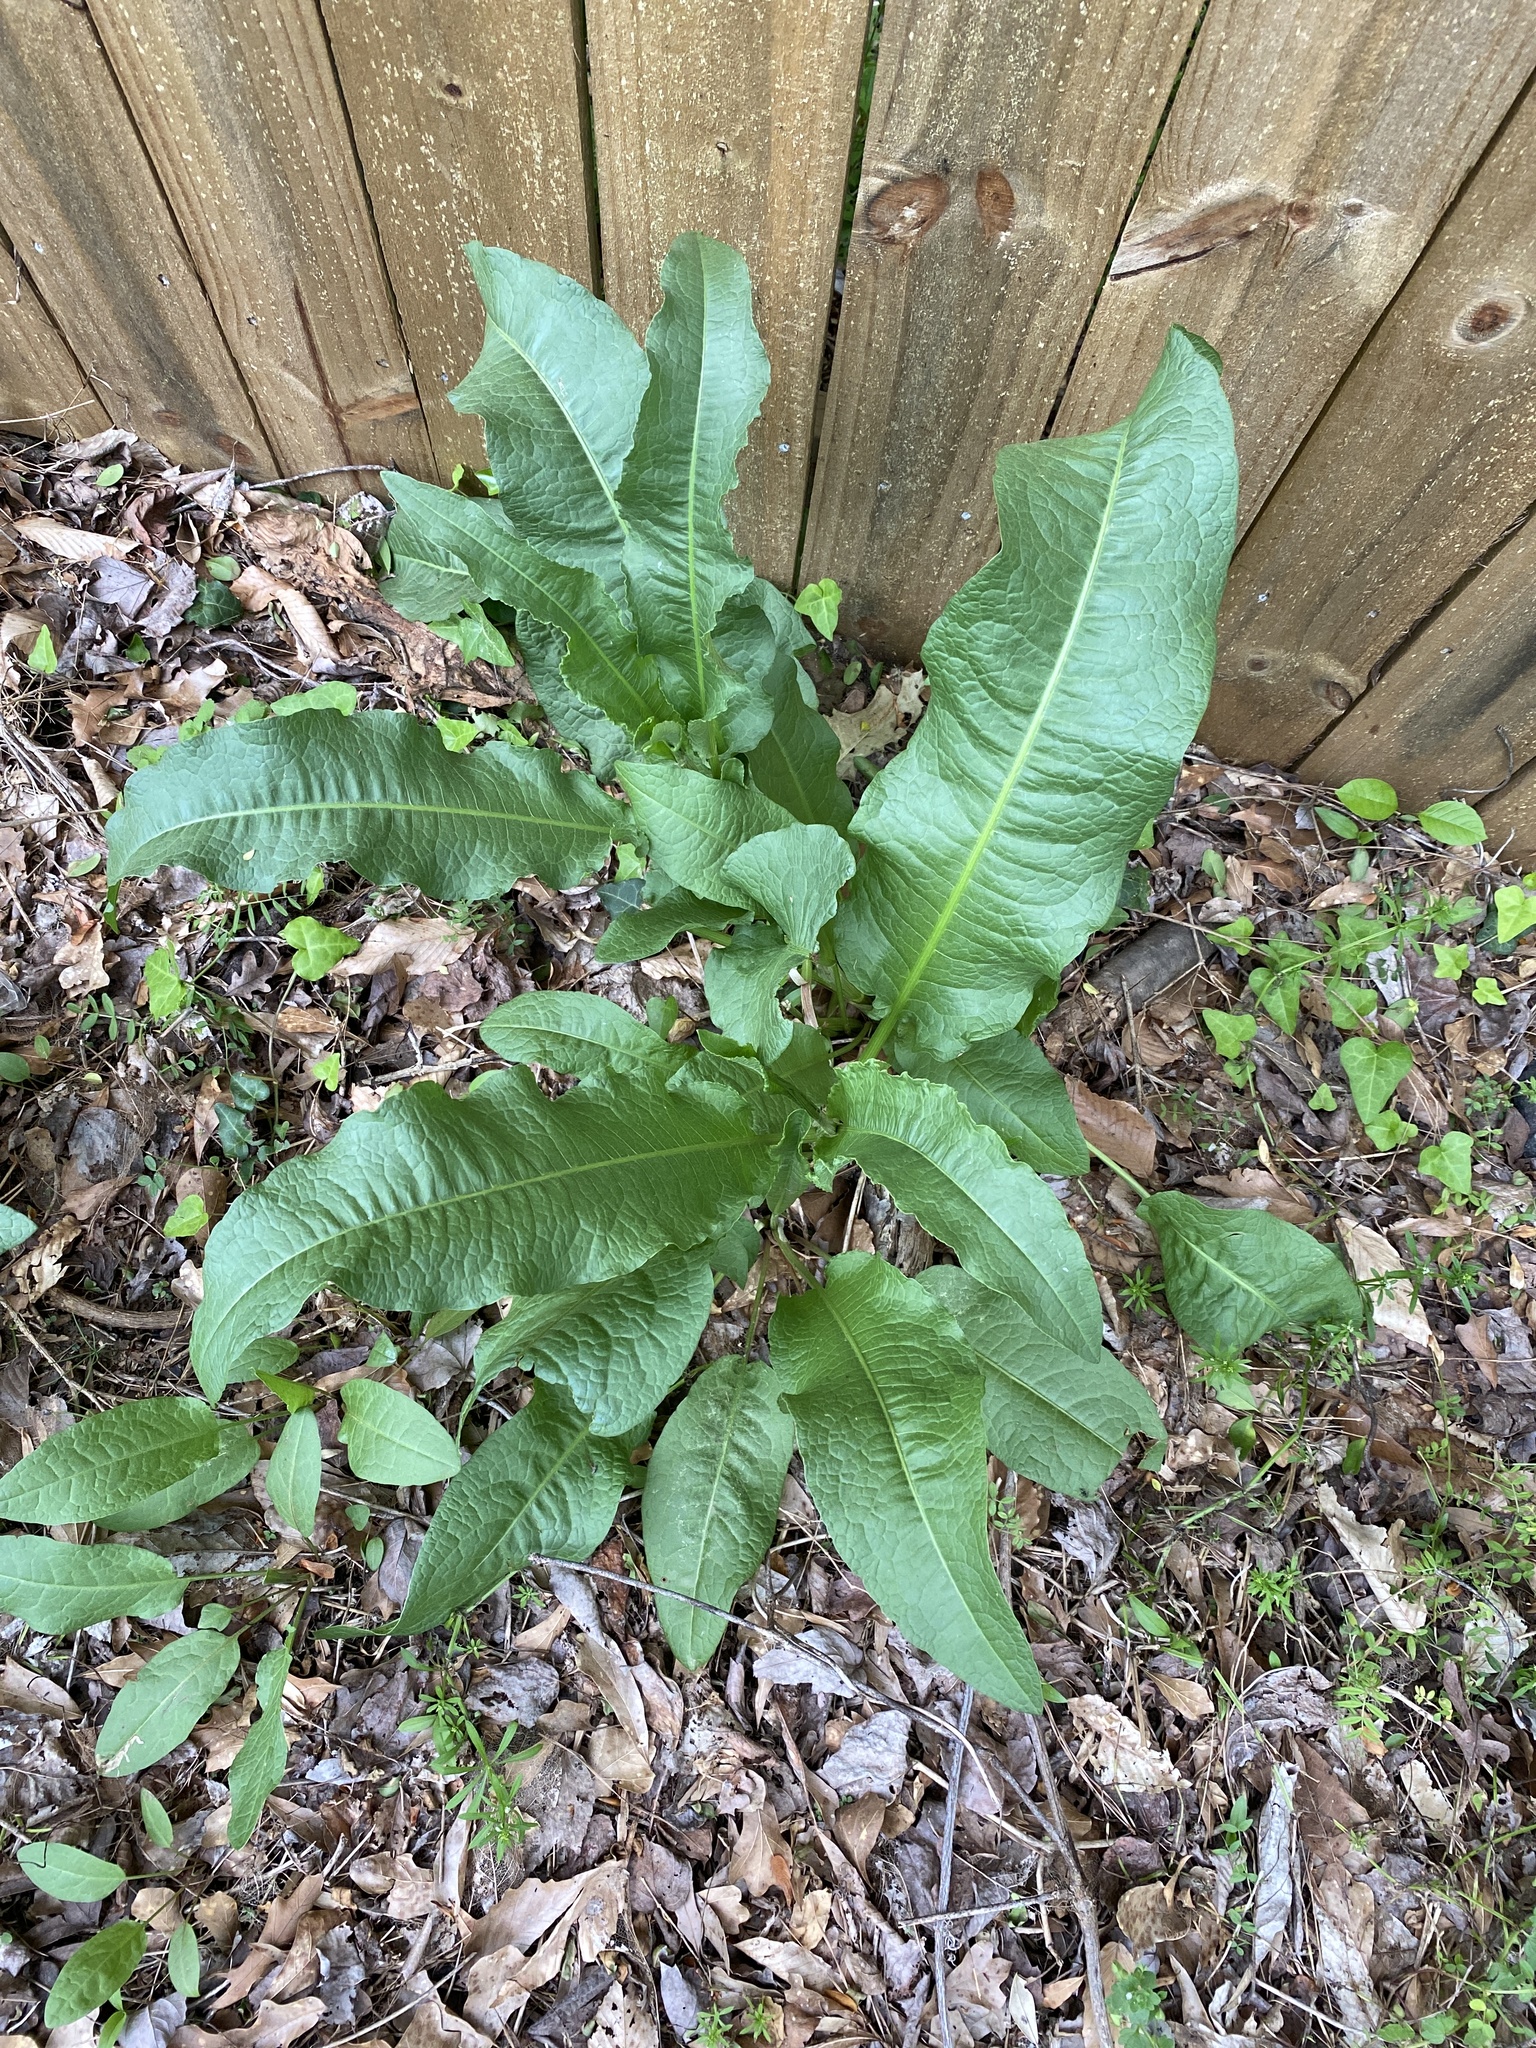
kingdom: Plantae
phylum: Tracheophyta
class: Magnoliopsida
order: Caryophyllales
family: Polygonaceae
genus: Rumex
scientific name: Rumex crispus
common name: Curled dock
